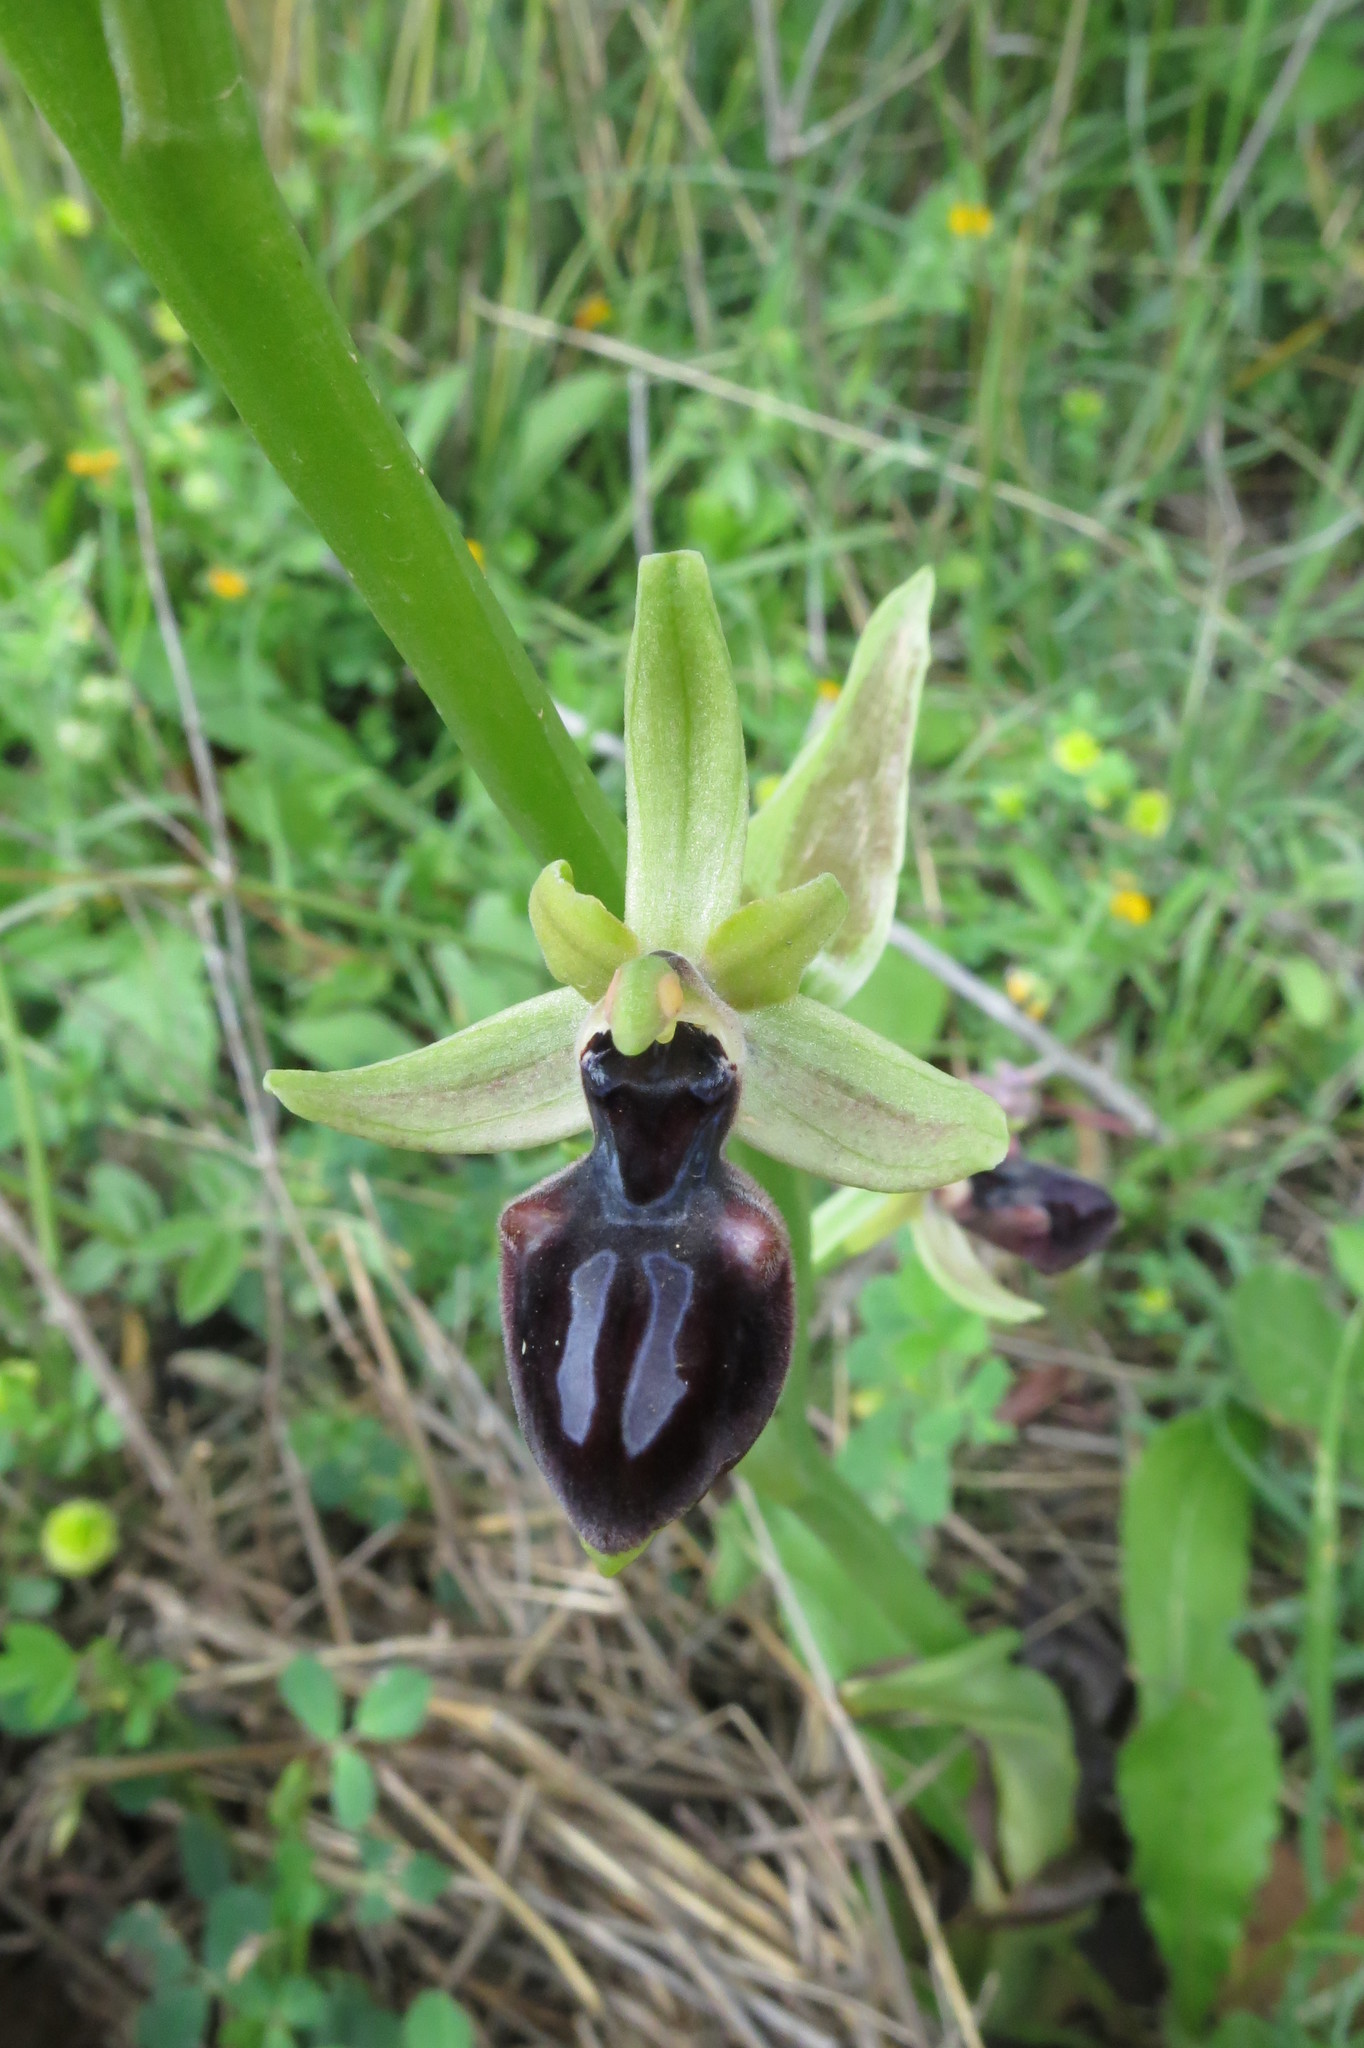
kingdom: Plantae
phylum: Tracheophyta
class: Liliopsida
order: Asparagales
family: Orchidaceae
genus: Ophrys
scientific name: Ophrys sphegodes
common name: Early spider-orchid
